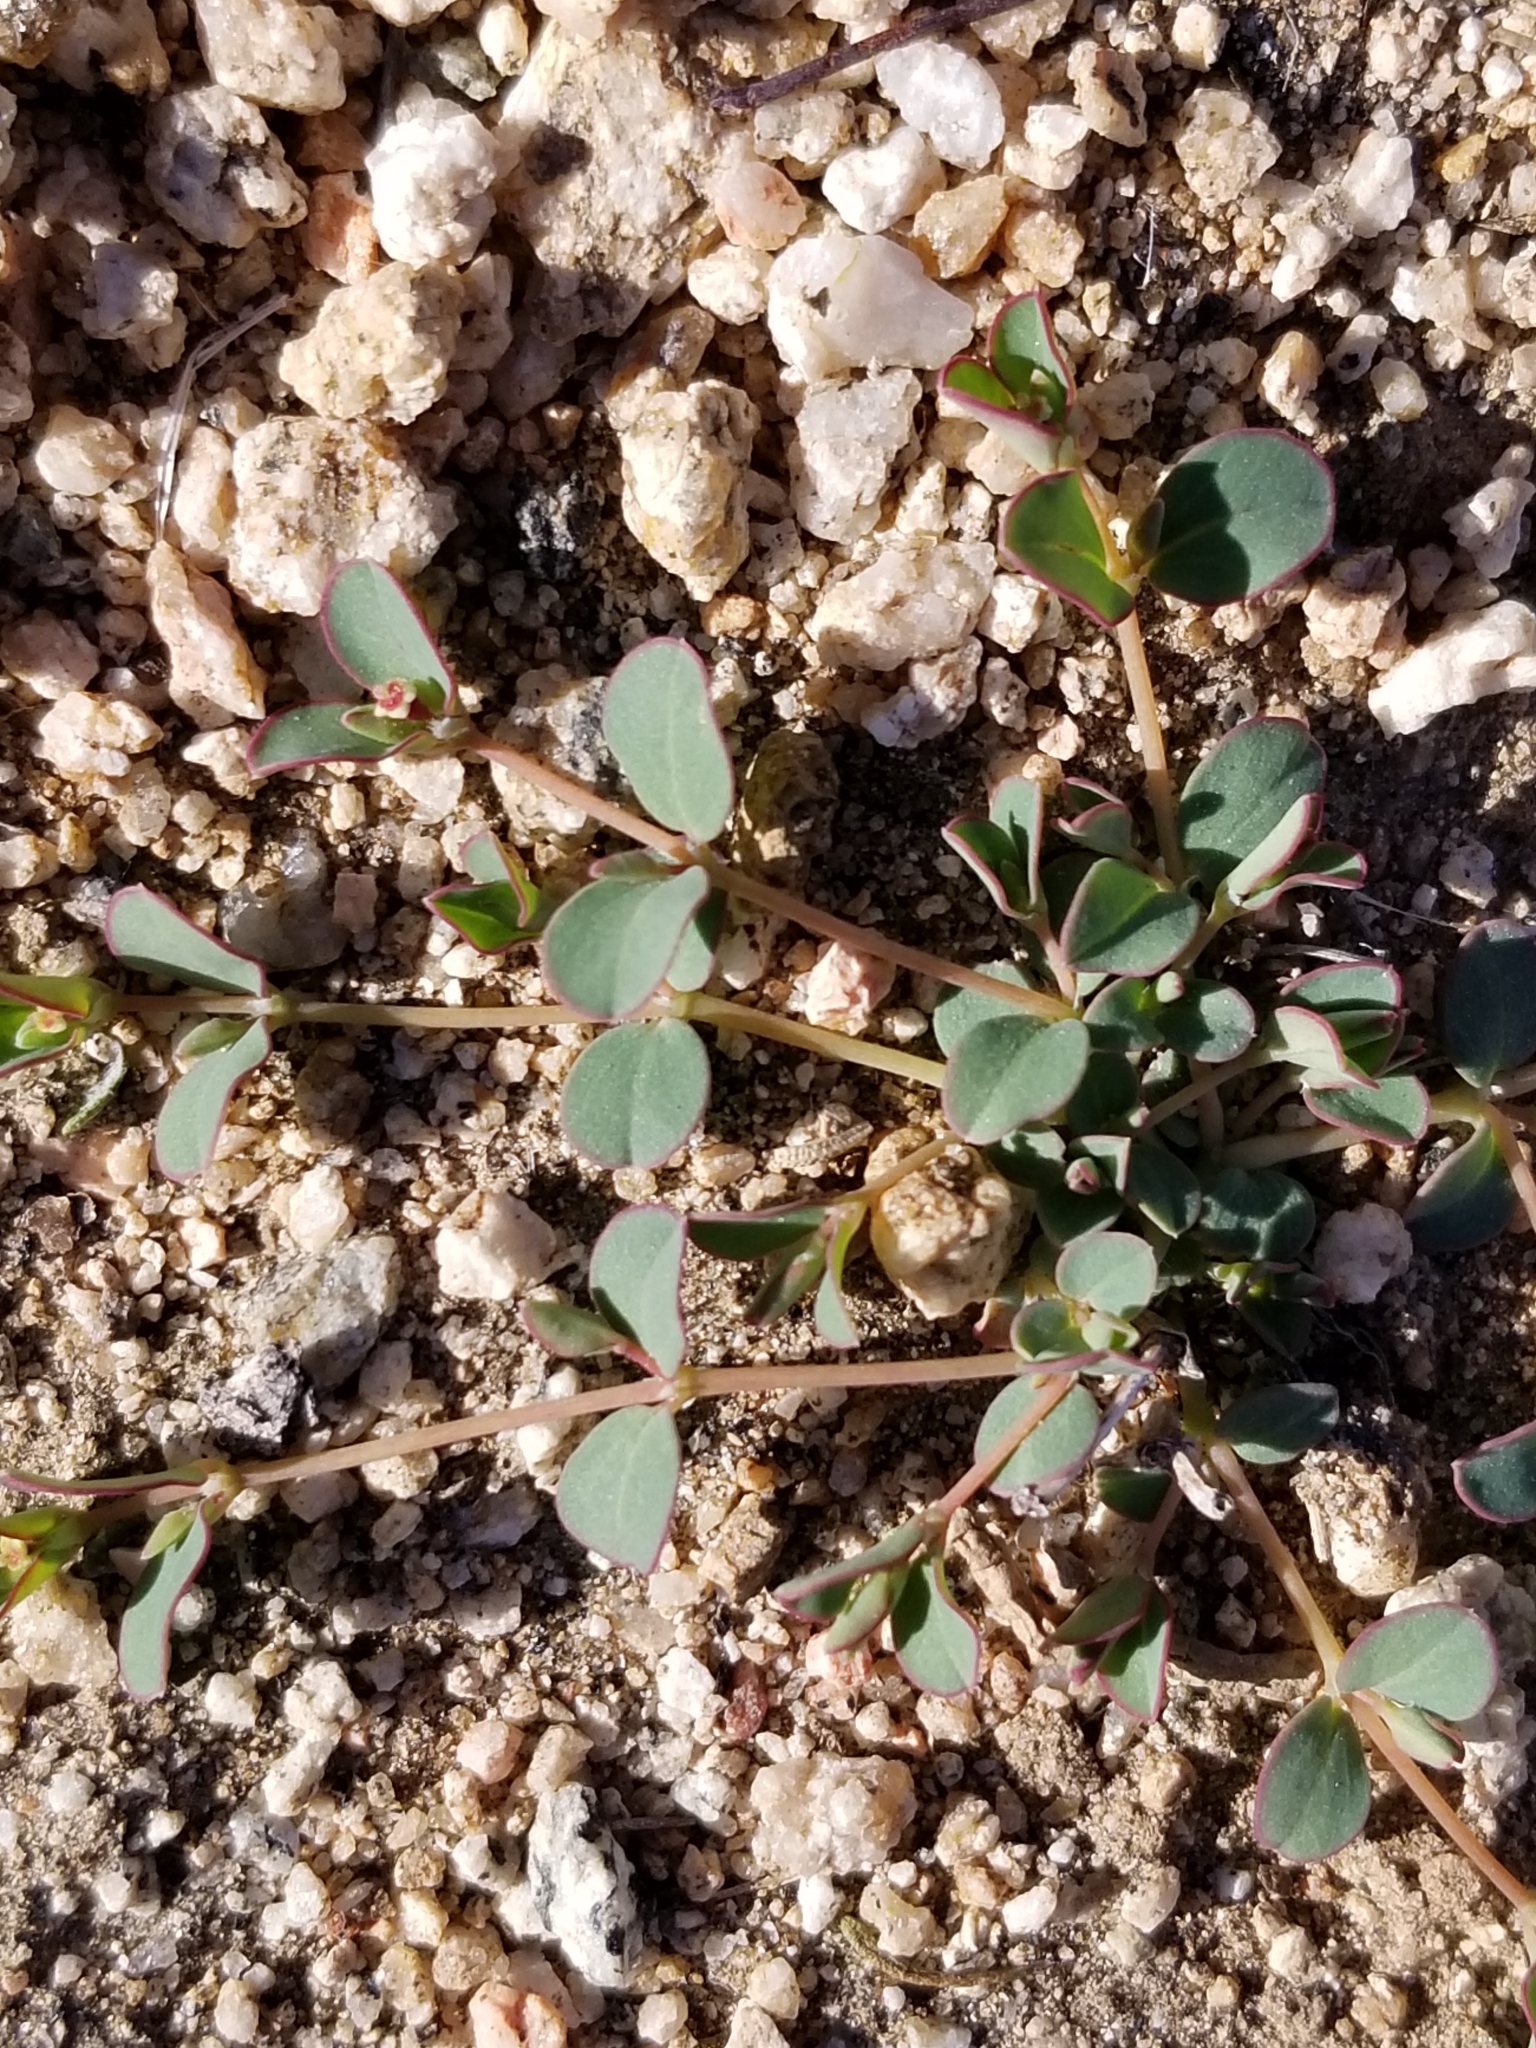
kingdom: Plantae
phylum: Tracheophyta
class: Magnoliopsida
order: Malpighiales
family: Euphorbiaceae
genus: Euphorbia
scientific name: Euphorbia albomarginata
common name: Whitemargin sandmat
